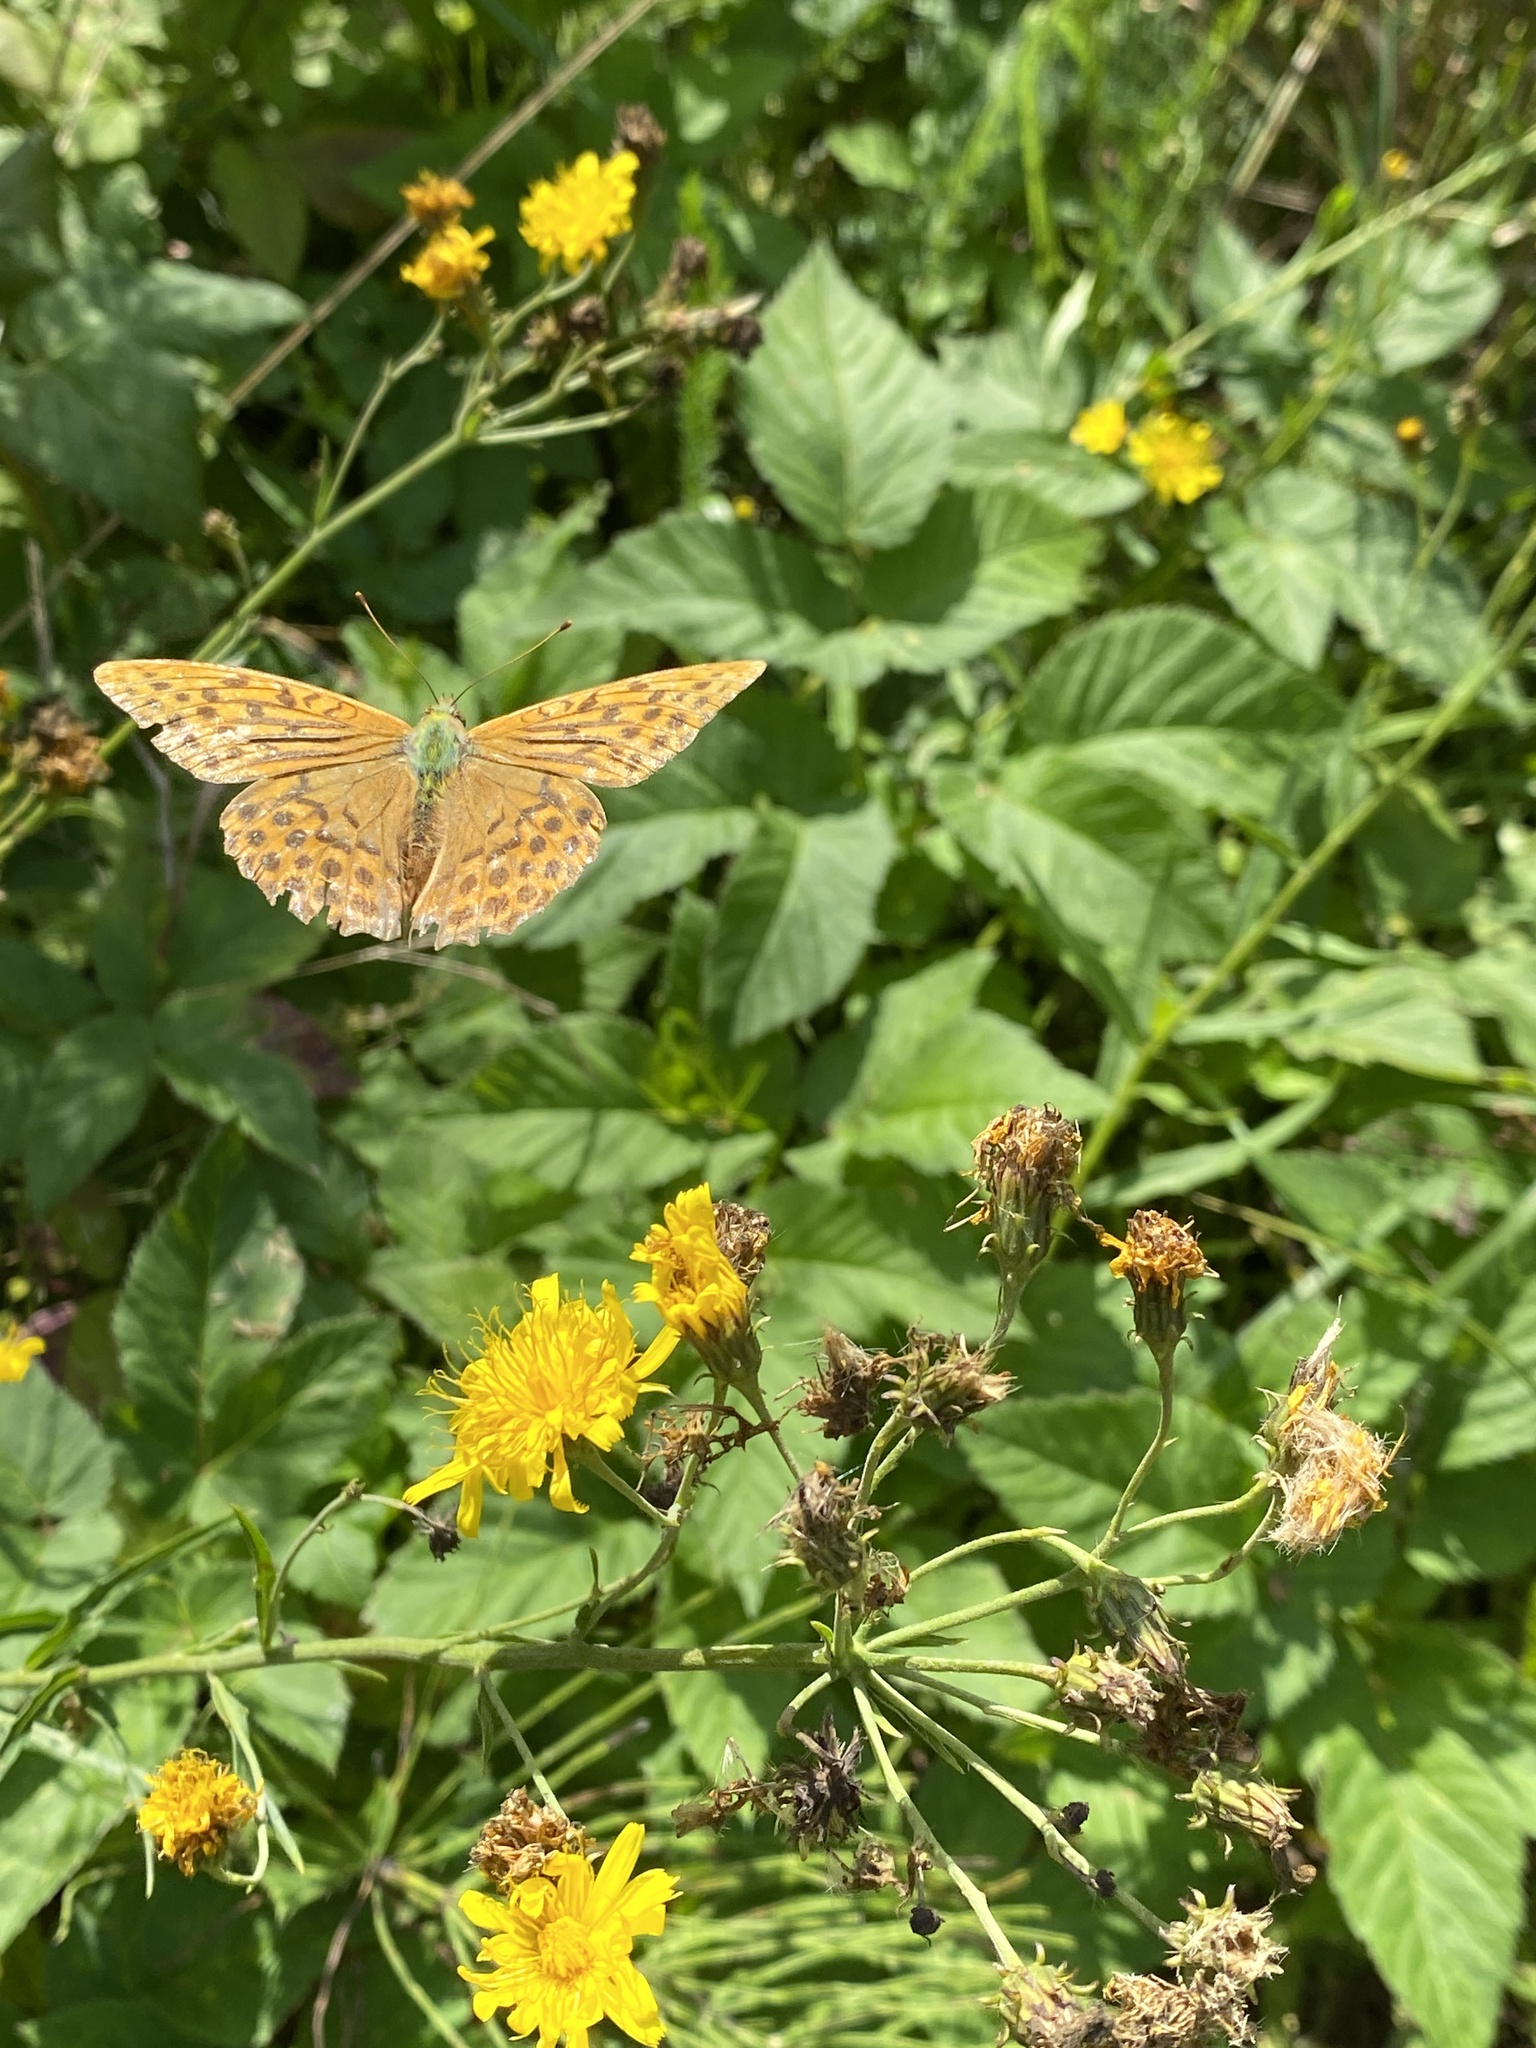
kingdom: Animalia
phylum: Arthropoda
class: Insecta
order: Lepidoptera
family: Nymphalidae
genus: Argynnis
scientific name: Argynnis paphia
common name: Silver-washed fritillary
